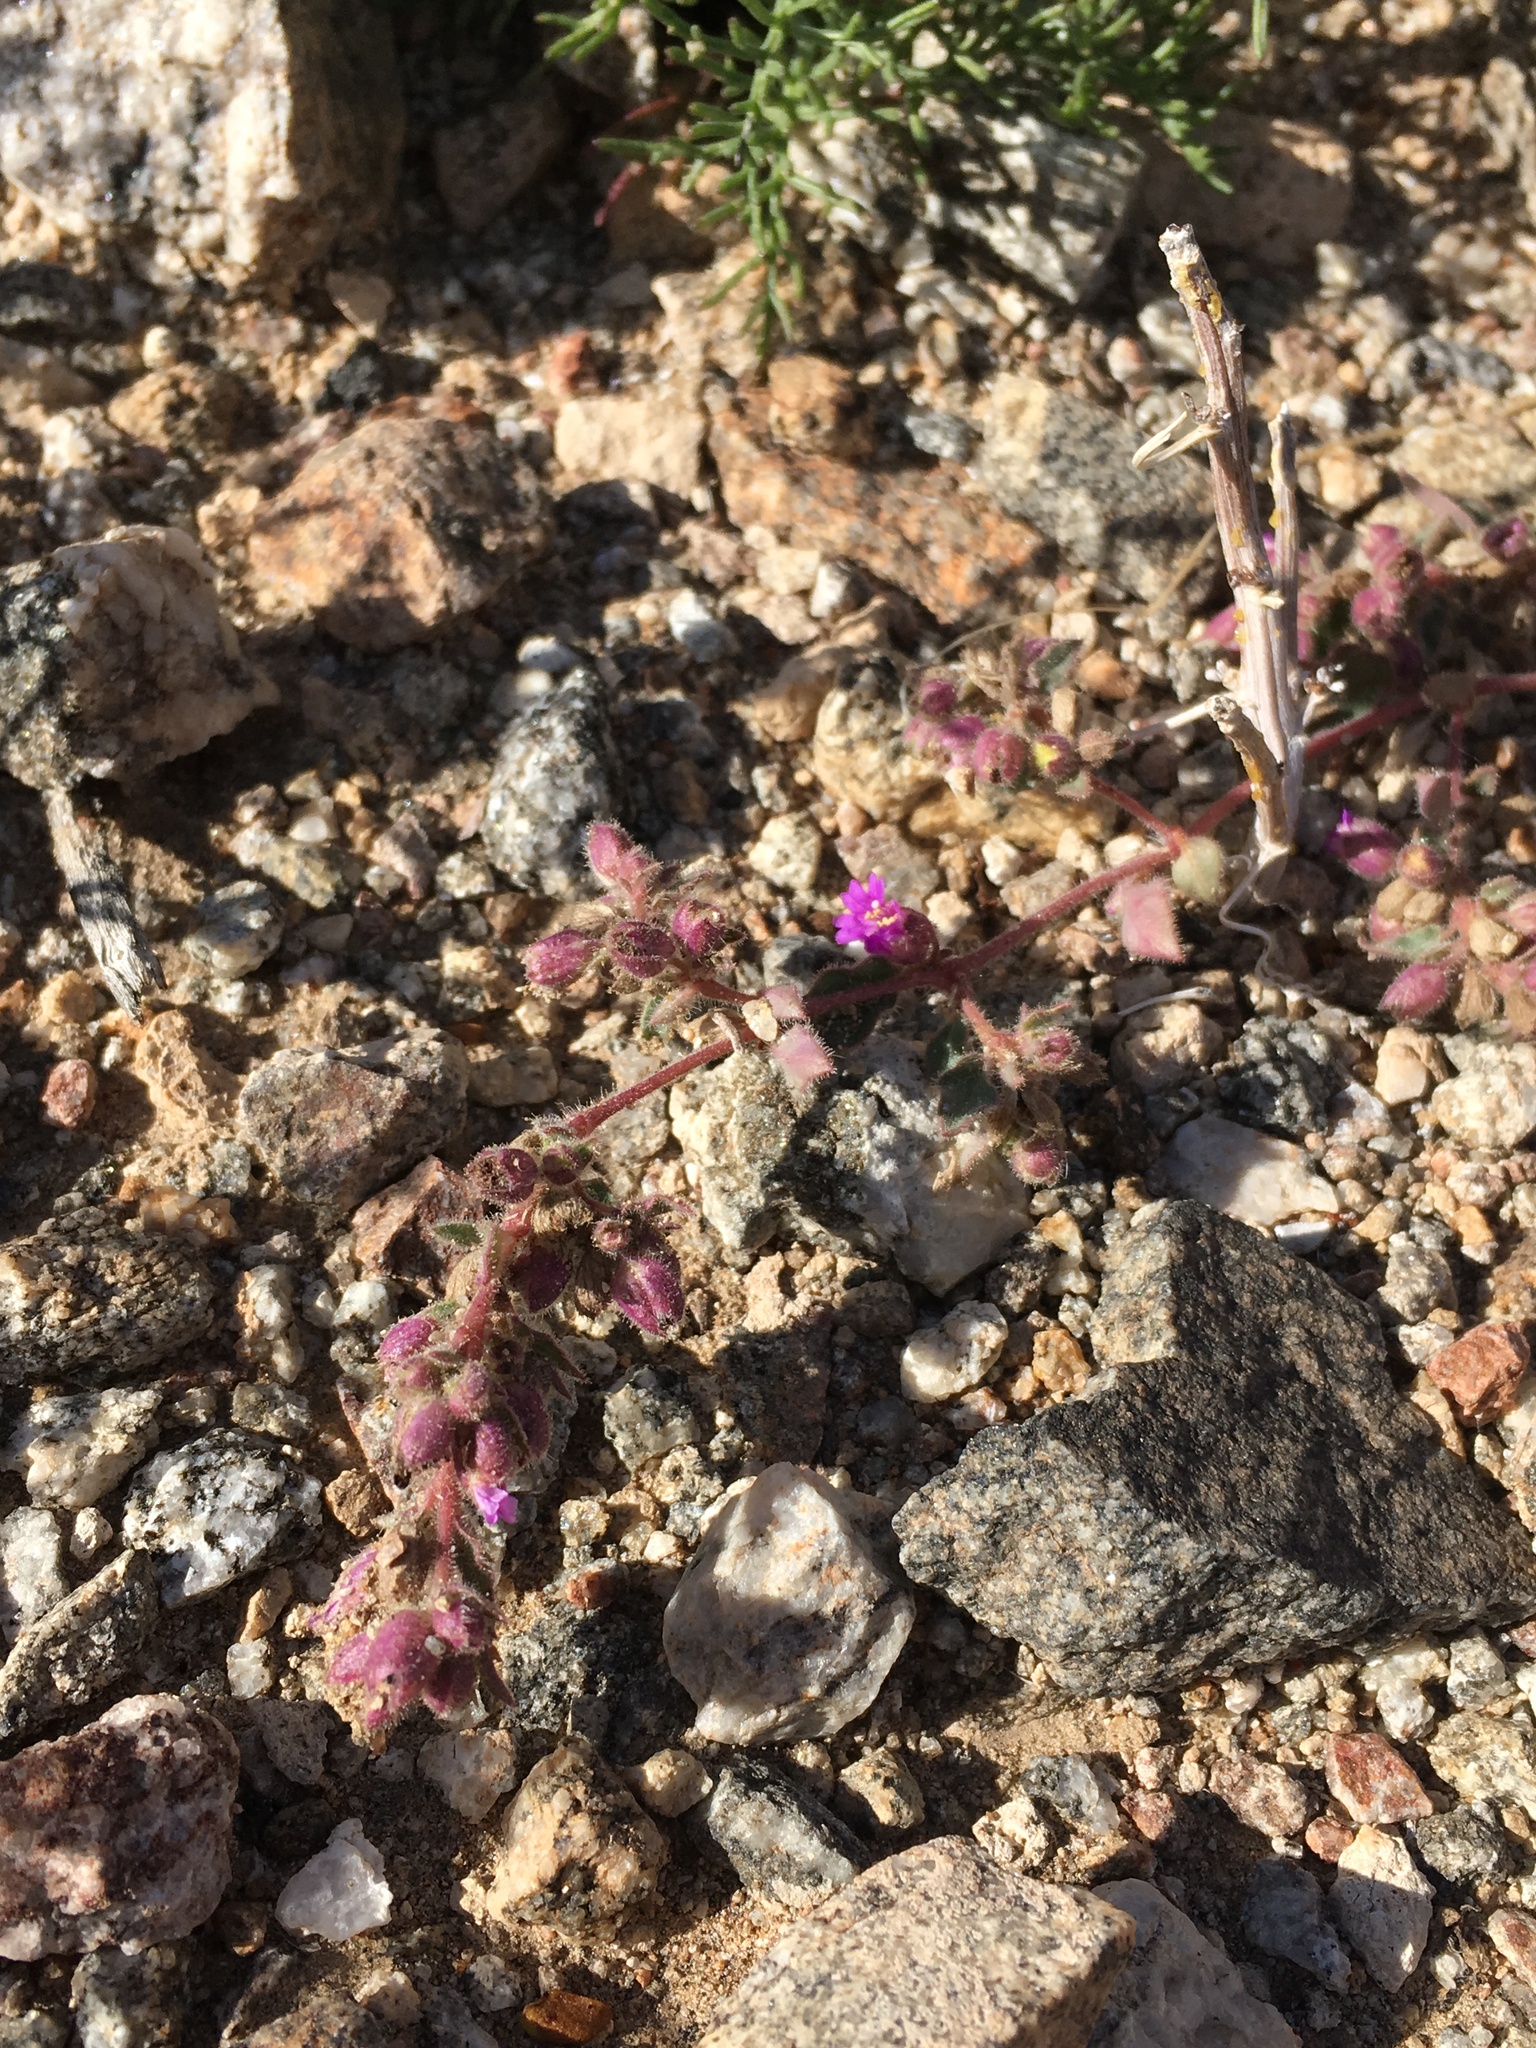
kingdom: Plantae
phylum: Tracheophyta
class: Magnoliopsida
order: Caryophyllales
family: Nyctaginaceae
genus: Allionia
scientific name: Allionia incarnata
